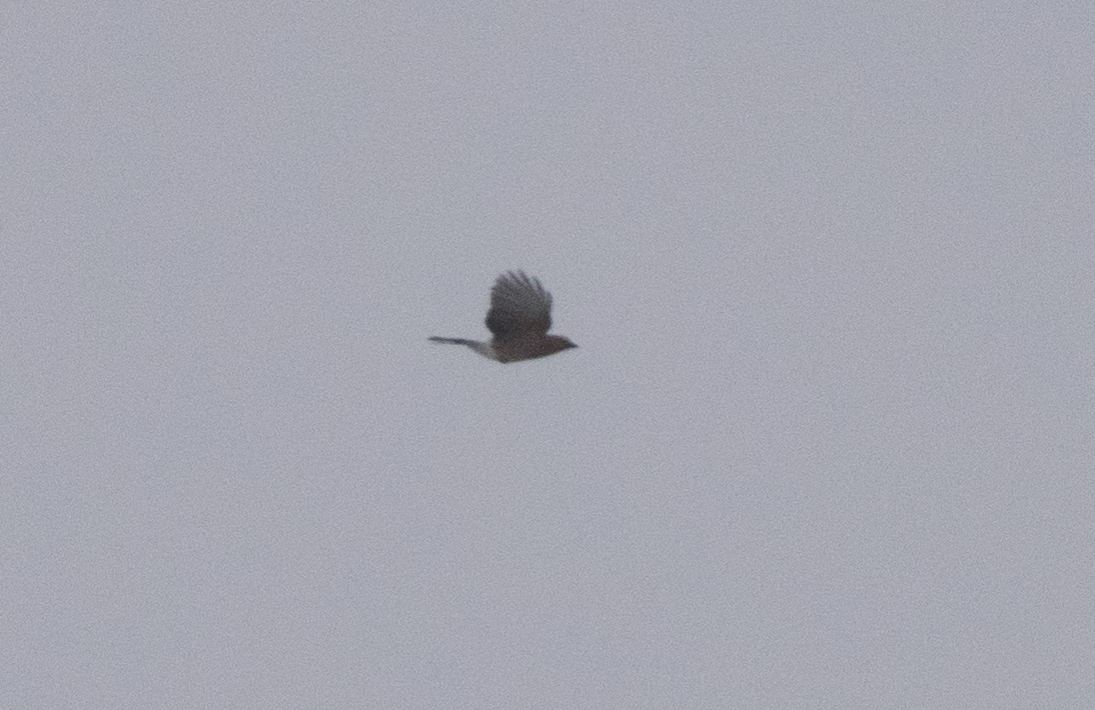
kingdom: Animalia
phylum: Chordata
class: Aves
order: Passeriformes
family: Corvidae
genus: Garrulus
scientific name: Garrulus glandarius
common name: Eurasian jay
